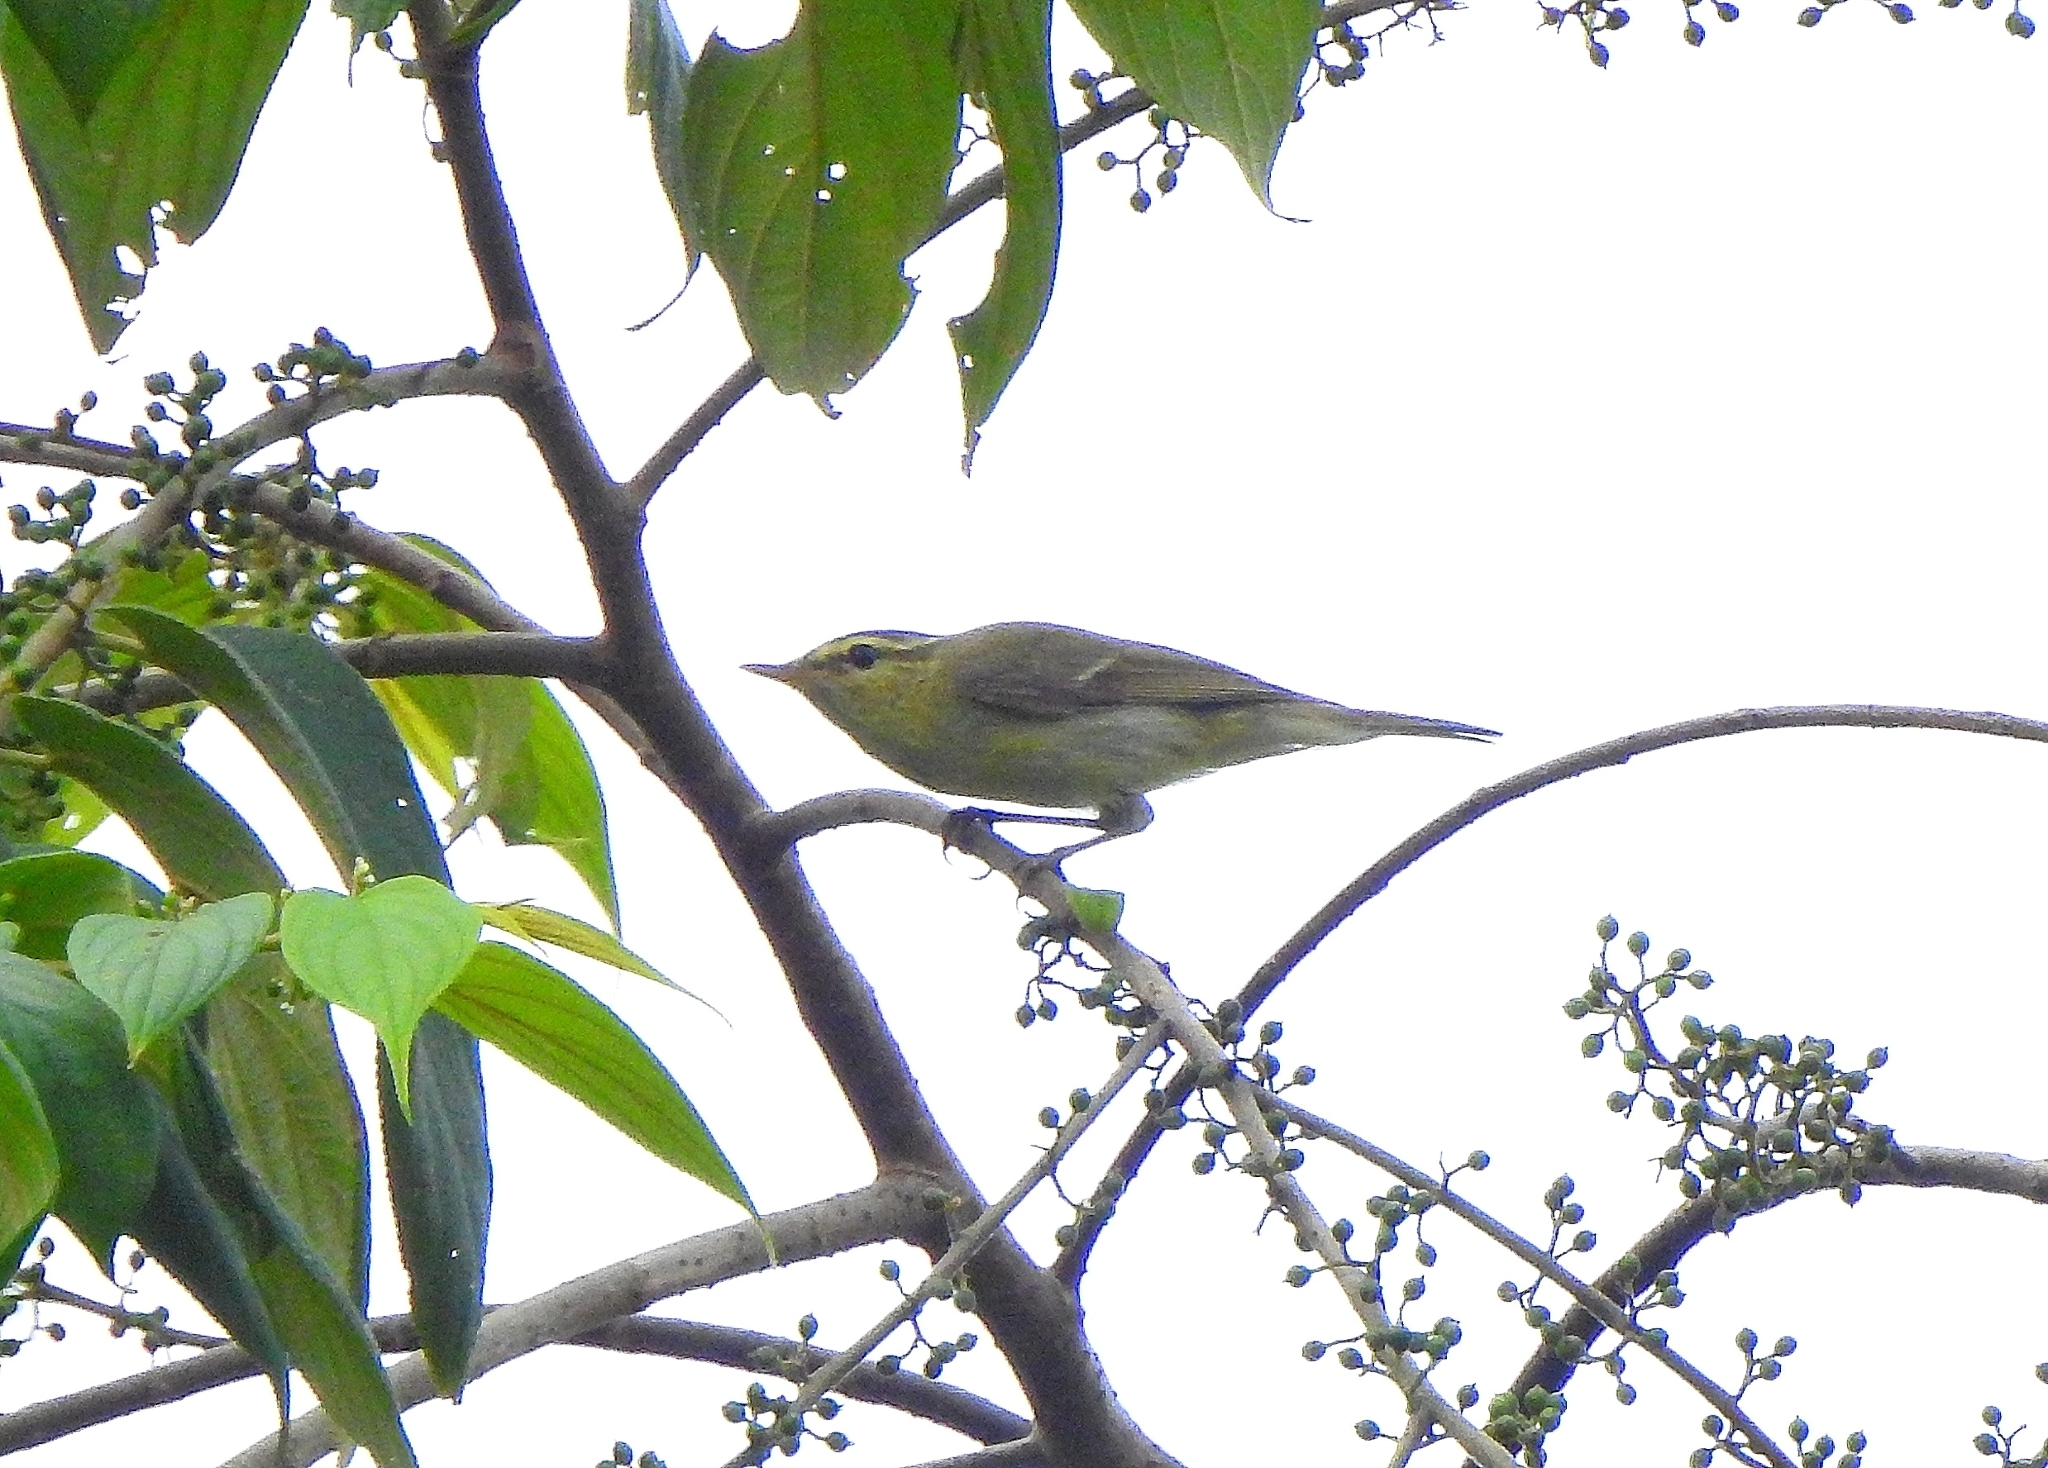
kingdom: Animalia
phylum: Chordata
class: Aves
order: Passeriformes
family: Phylloscopidae
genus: Phylloscopus
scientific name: Phylloscopus trochiloides
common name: Greenish warbler
